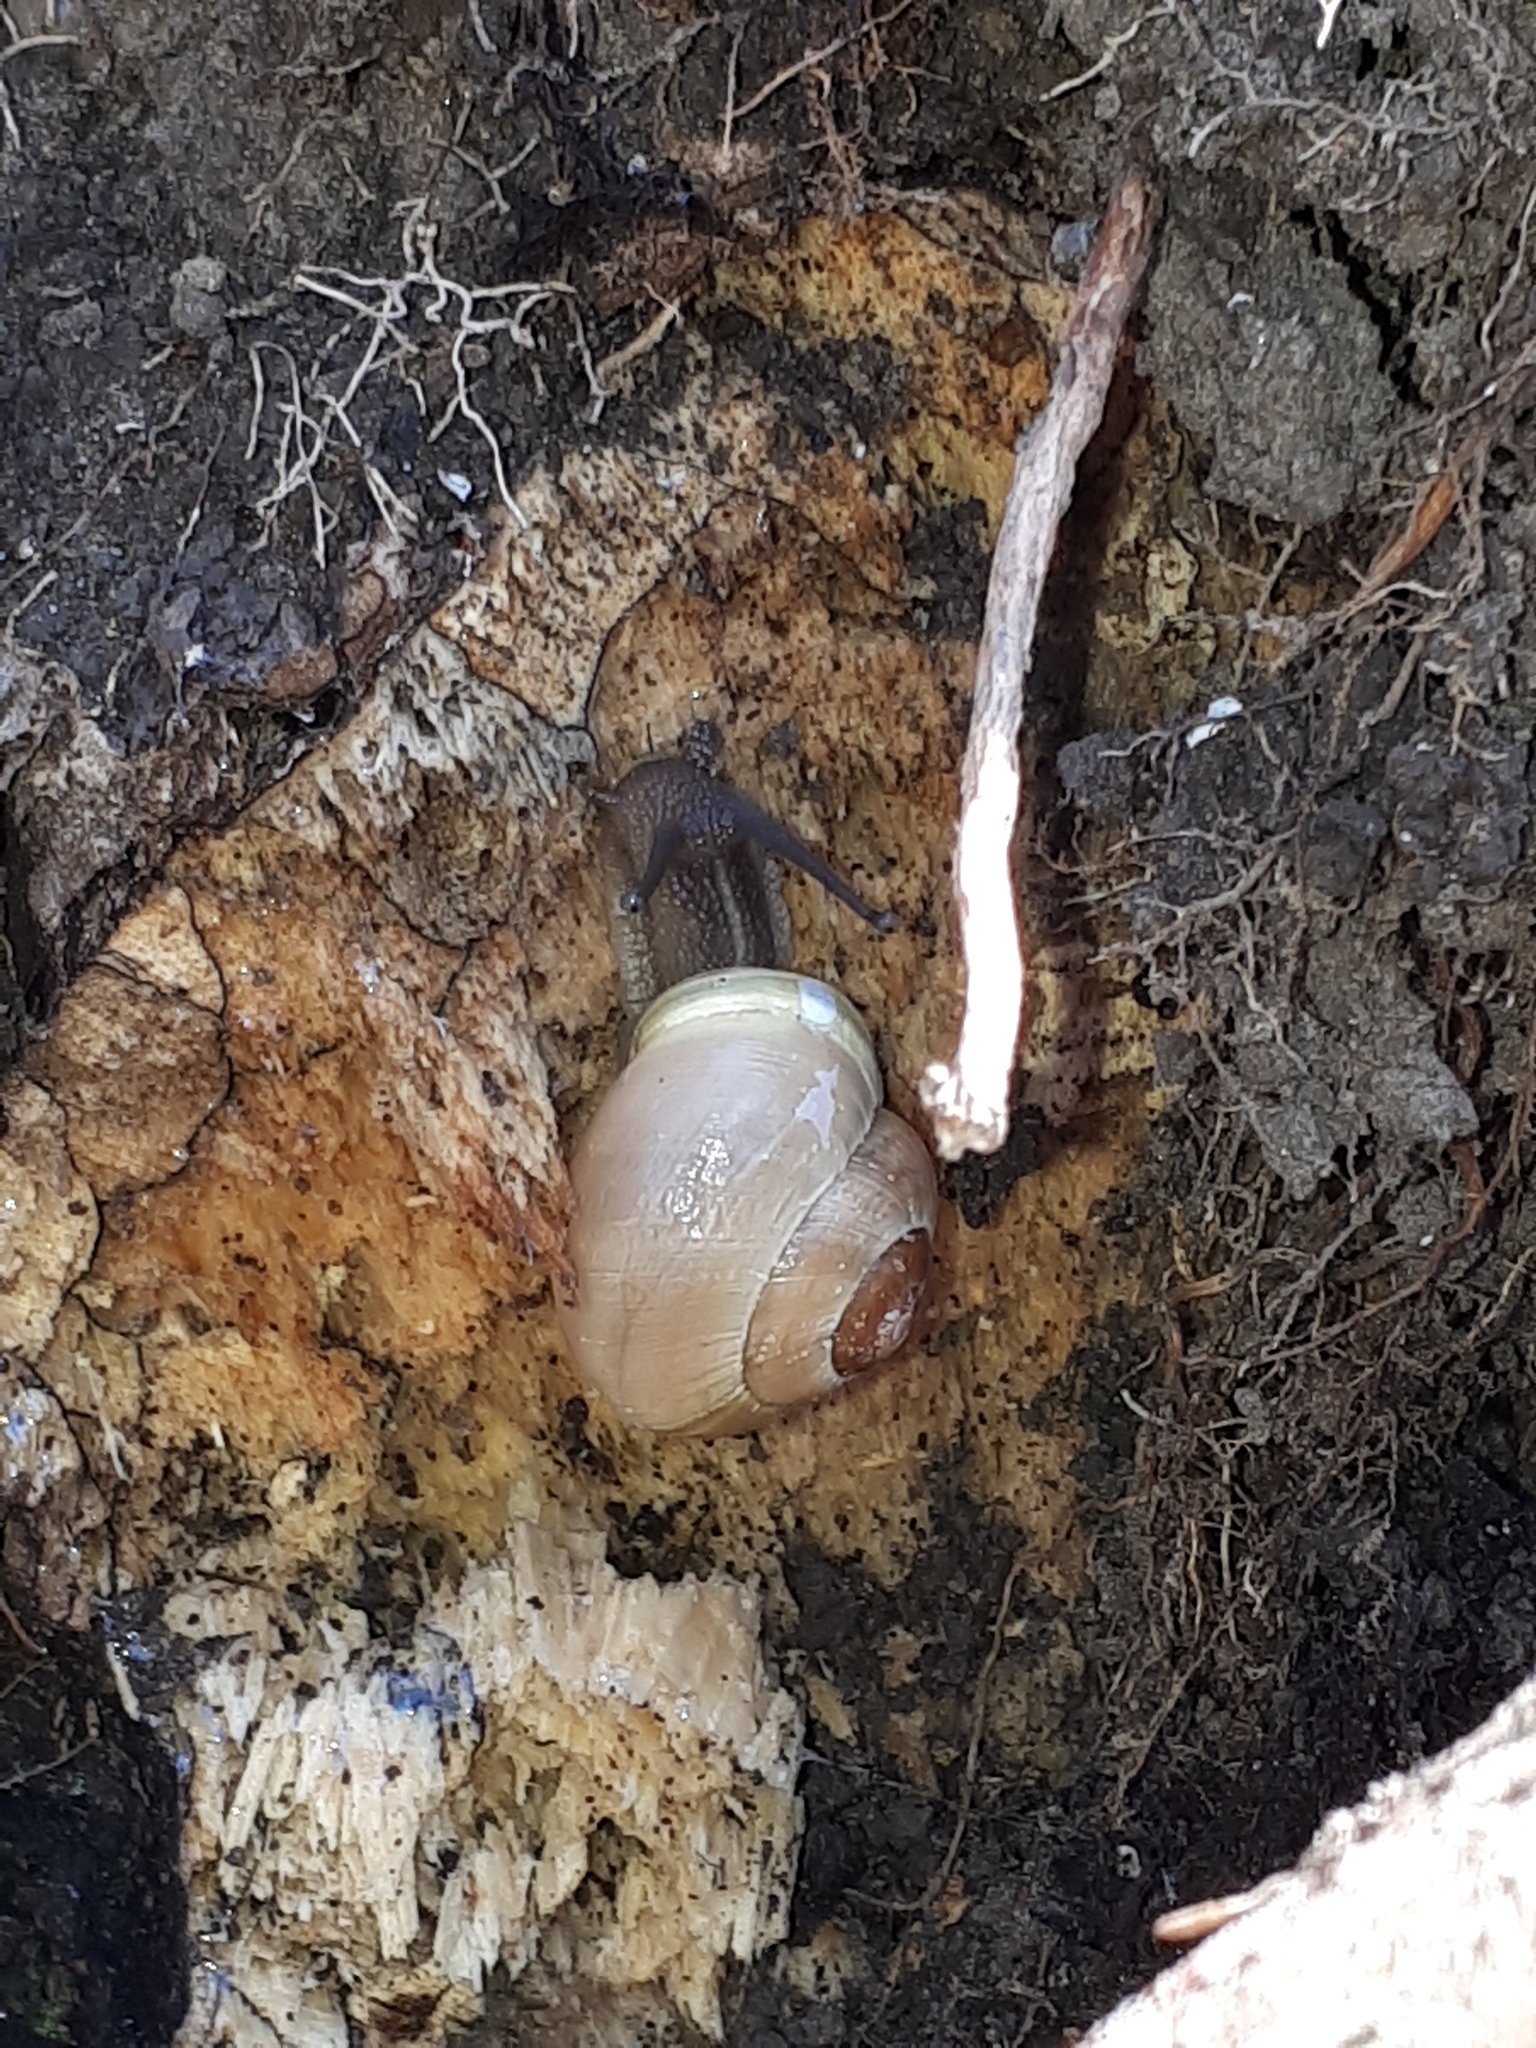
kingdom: Animalia
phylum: Mollusca
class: Gastropoda
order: Stylommatophora
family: Helicidae
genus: Cepaea
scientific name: Cepaea hortensis
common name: White-lip gardensnail
